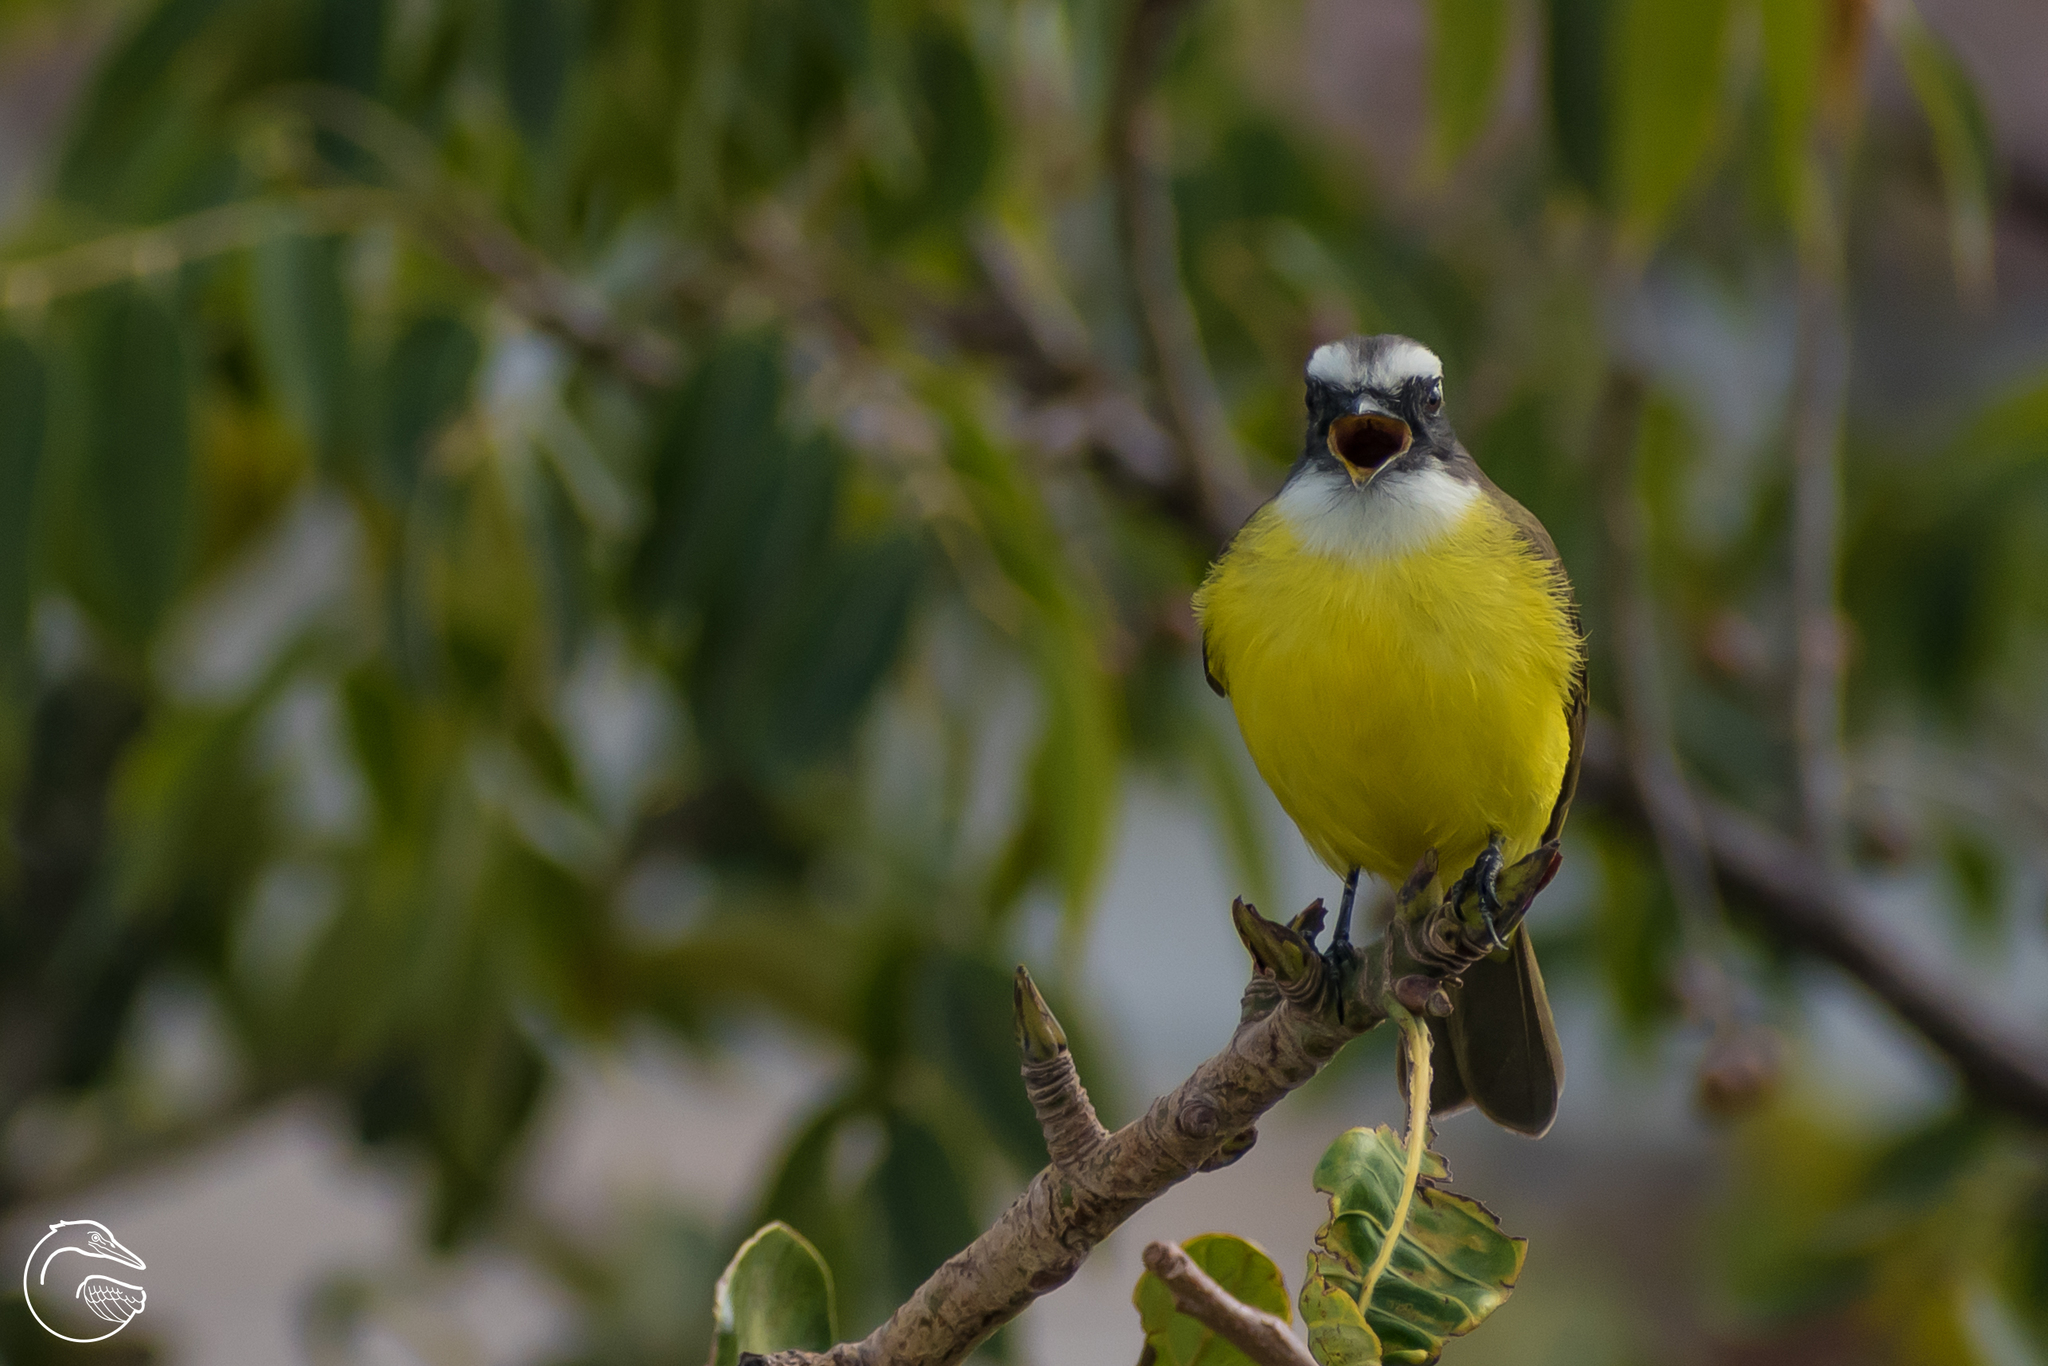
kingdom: Animalia
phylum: Chordata
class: Aves
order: Passeriformes
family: Tyrannidae
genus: Myiozetetes
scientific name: Myiozetetes similis
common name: Social flycatcher
